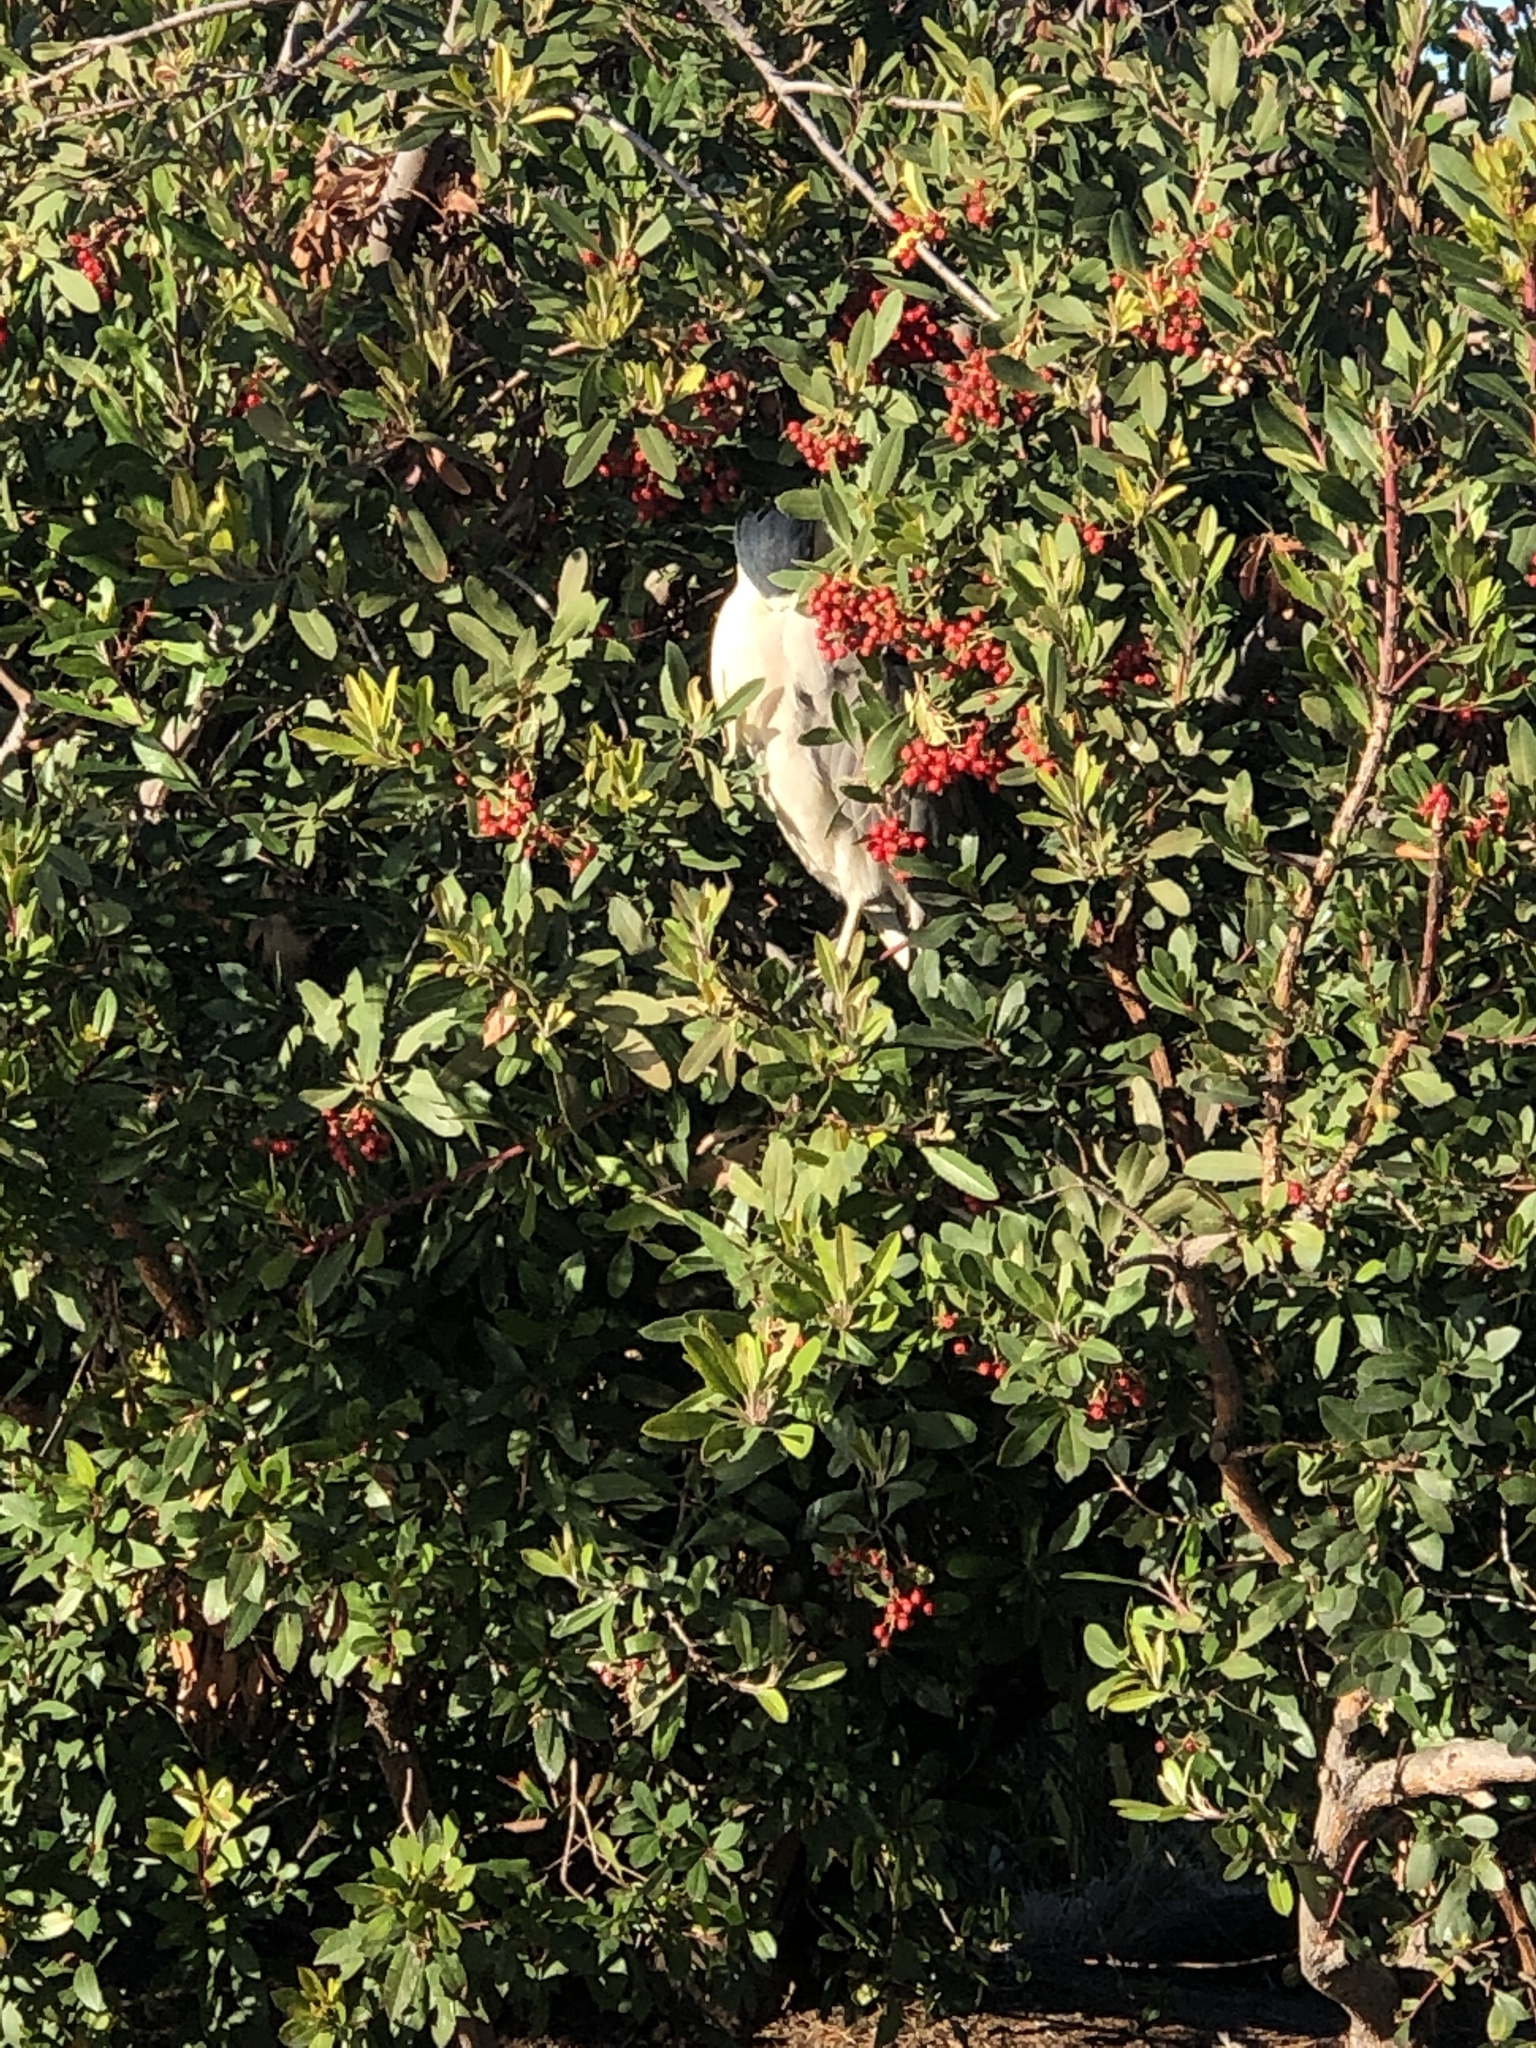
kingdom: Animalia
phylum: Chordata
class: Aves
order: Pelecaniformes
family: Ardeidae
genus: Nycticorax
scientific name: Nycticorax nycticorax
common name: Black-crowned night heron
